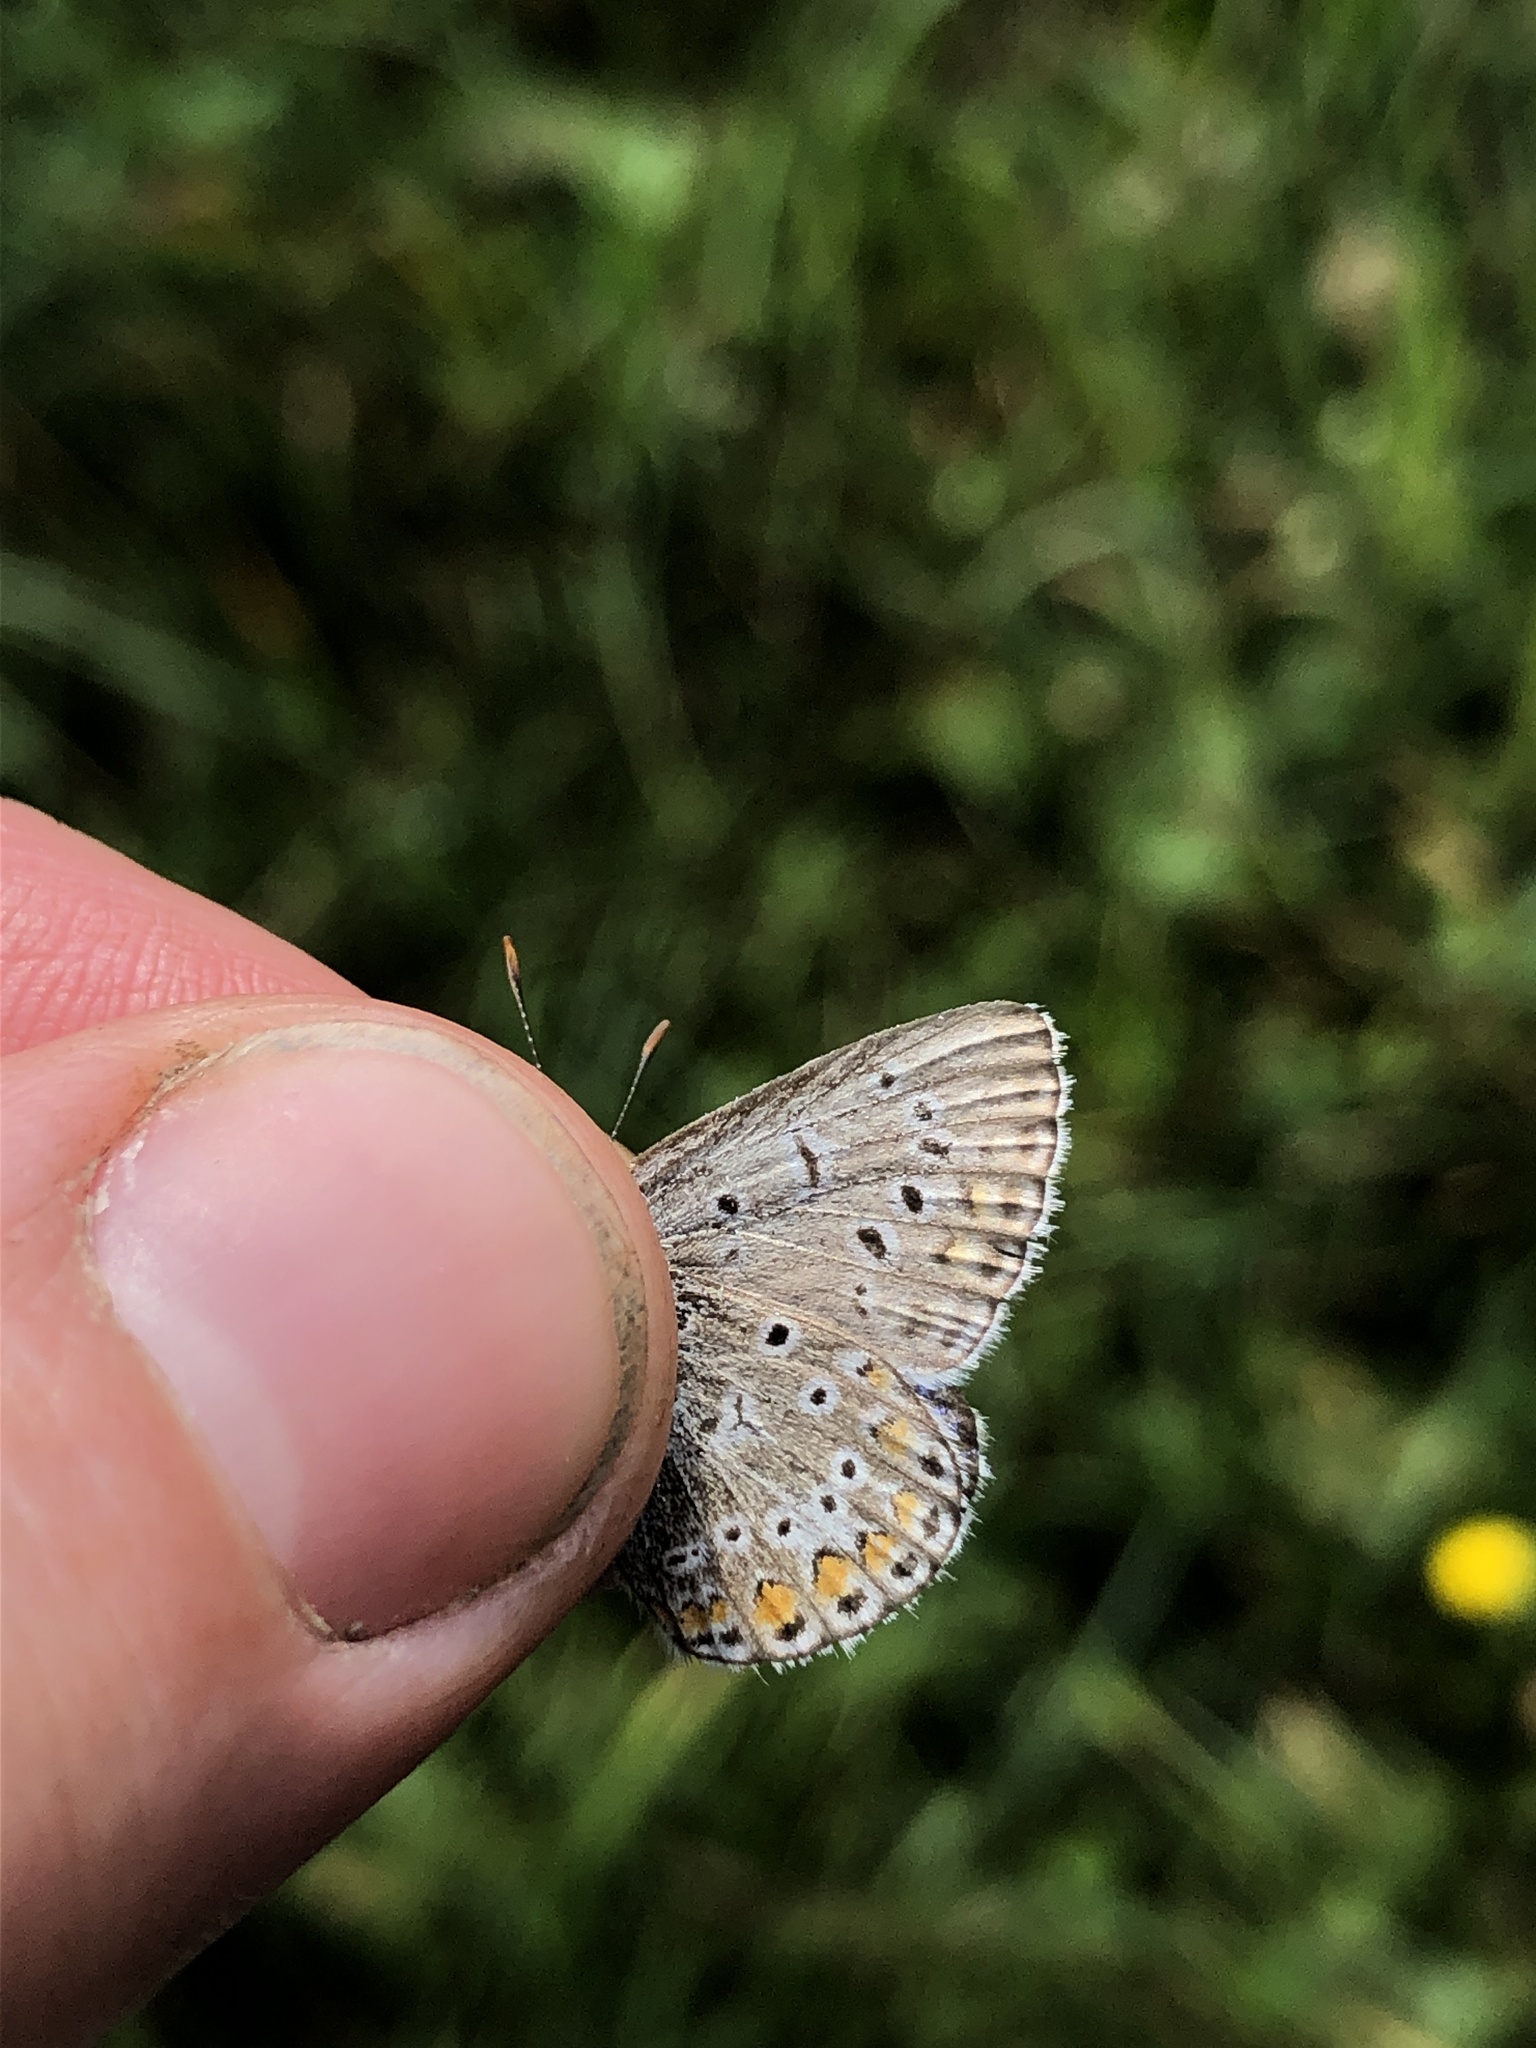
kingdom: Animalia
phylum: Arthropoda
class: Insecta
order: Lepidoptera
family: Lycaenidae
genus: Polyommatus
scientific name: Polyommatus icarus
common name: Common blue
